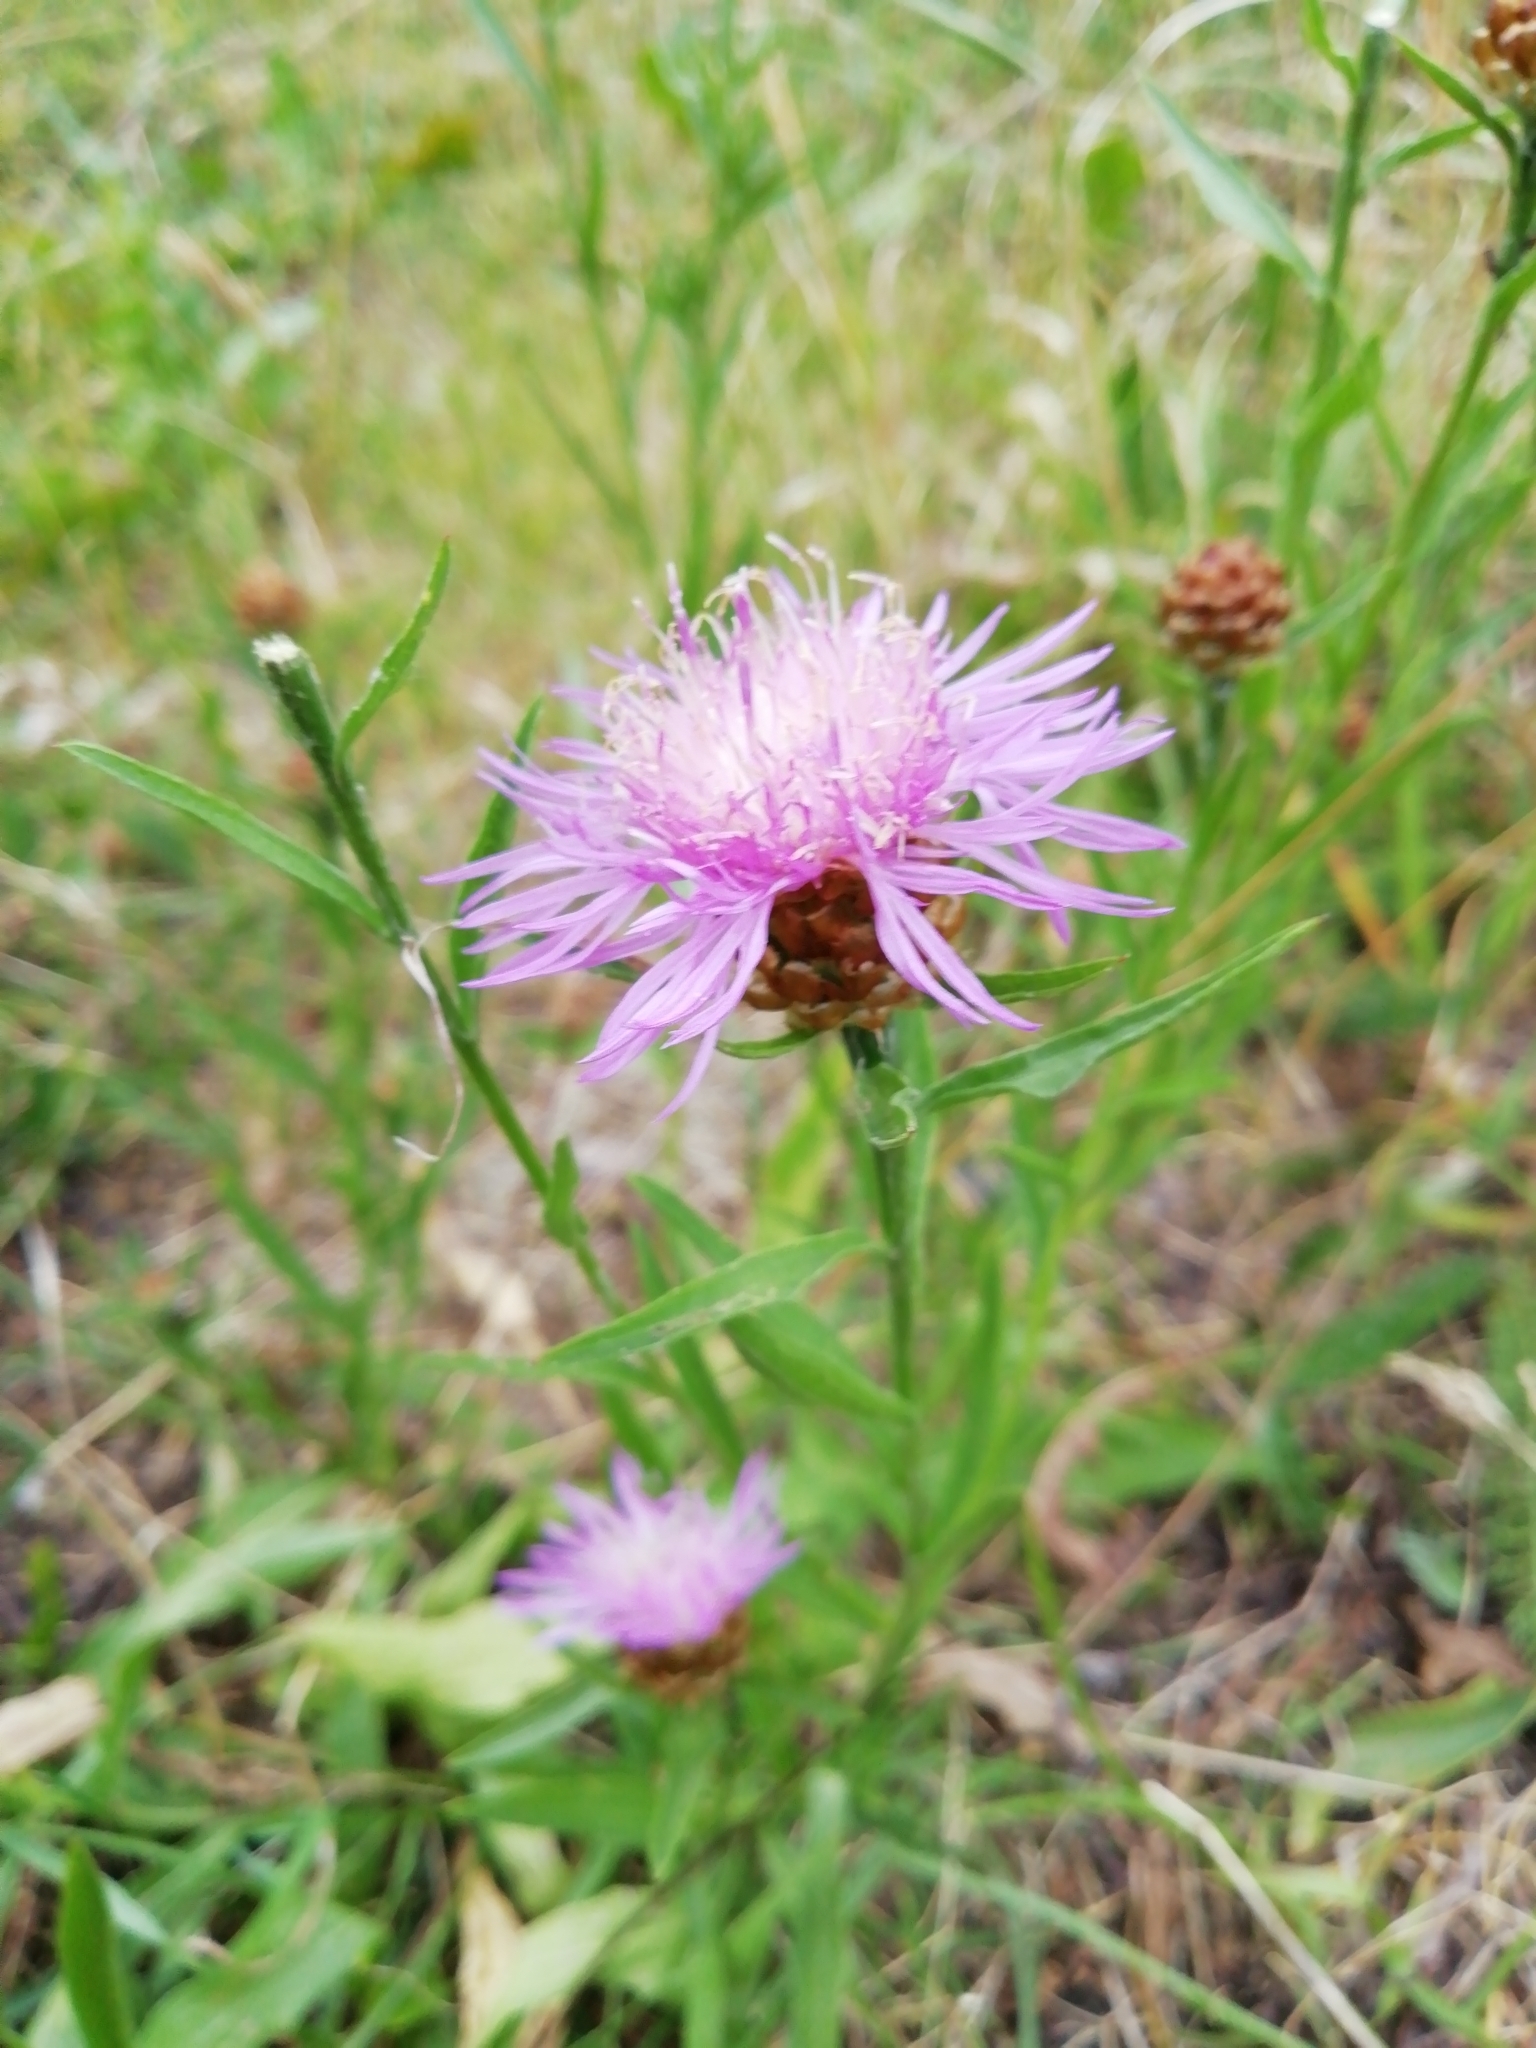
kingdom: Plantae
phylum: Tracheophyta
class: Magnoliopsida
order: Asterales
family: Asteraceae
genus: Centaurea
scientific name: Centaurea jacea
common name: Brown knapweed
